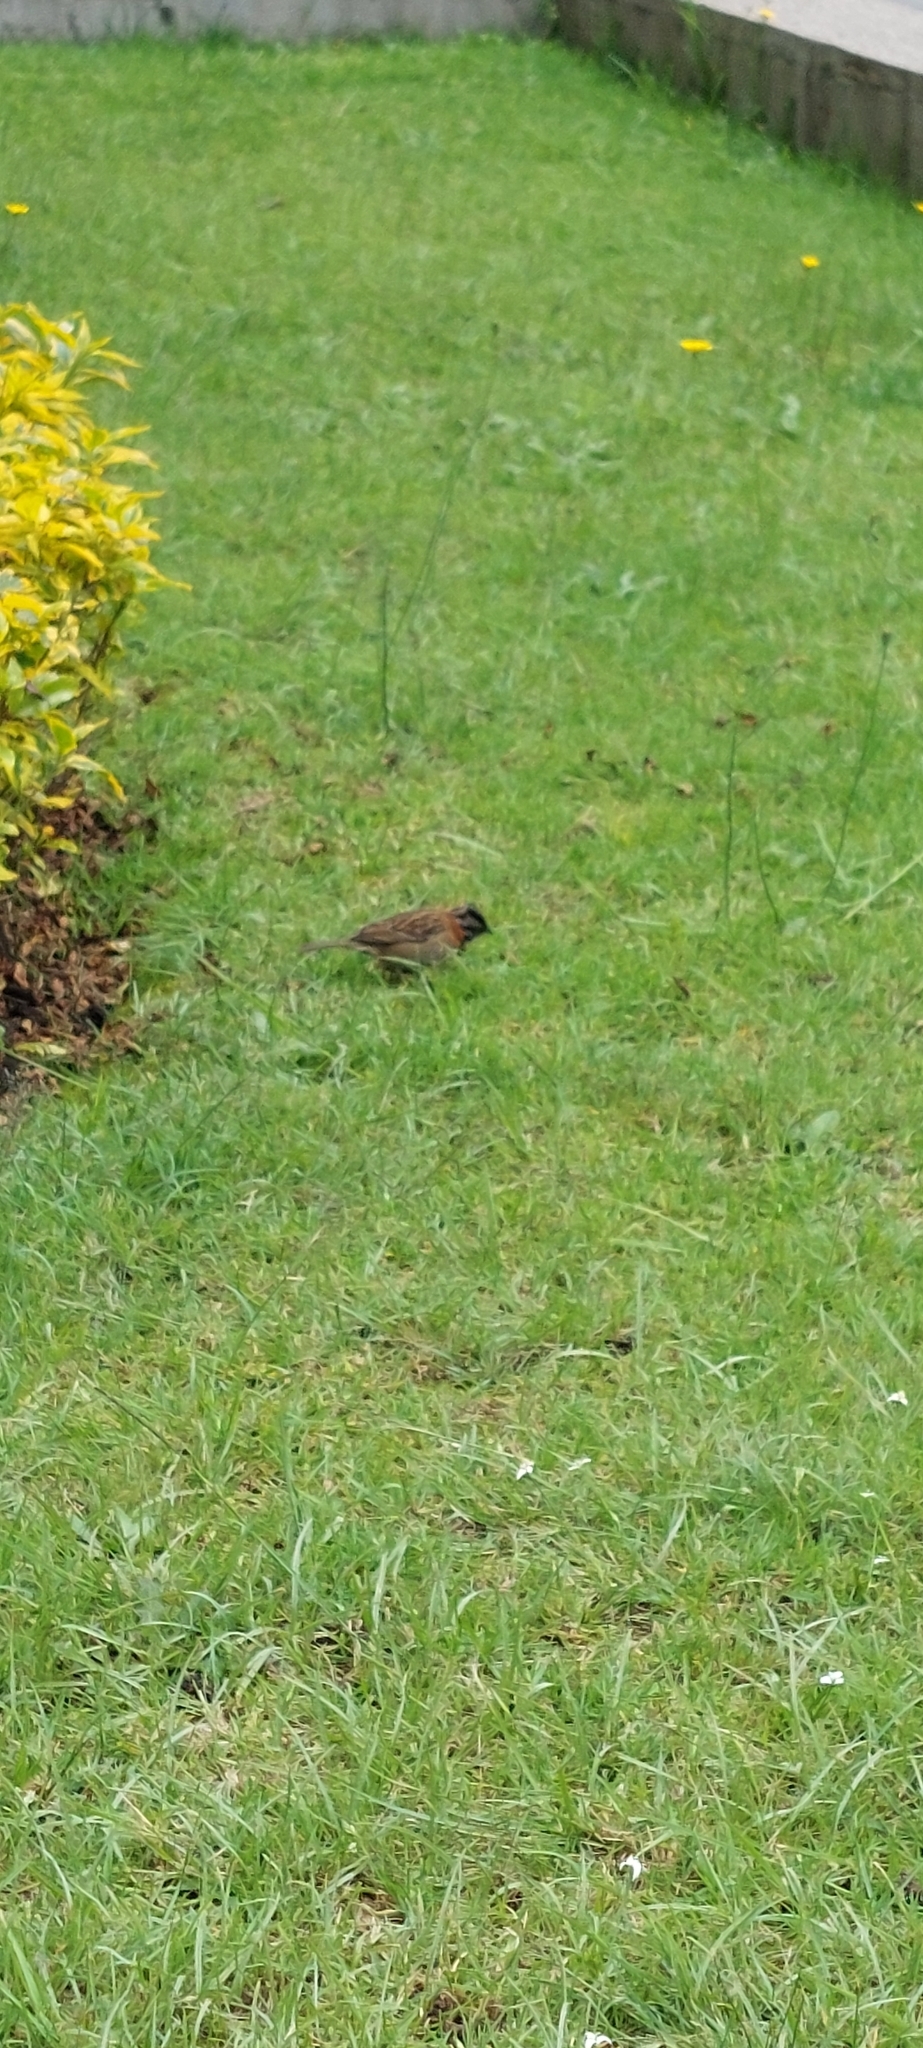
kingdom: Animalia
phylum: Chordata
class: Aves
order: Passeriformes
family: Passerellidae
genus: Zonotrichia
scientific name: Zonotrichia capensis
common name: Rufous-collared sparrow
